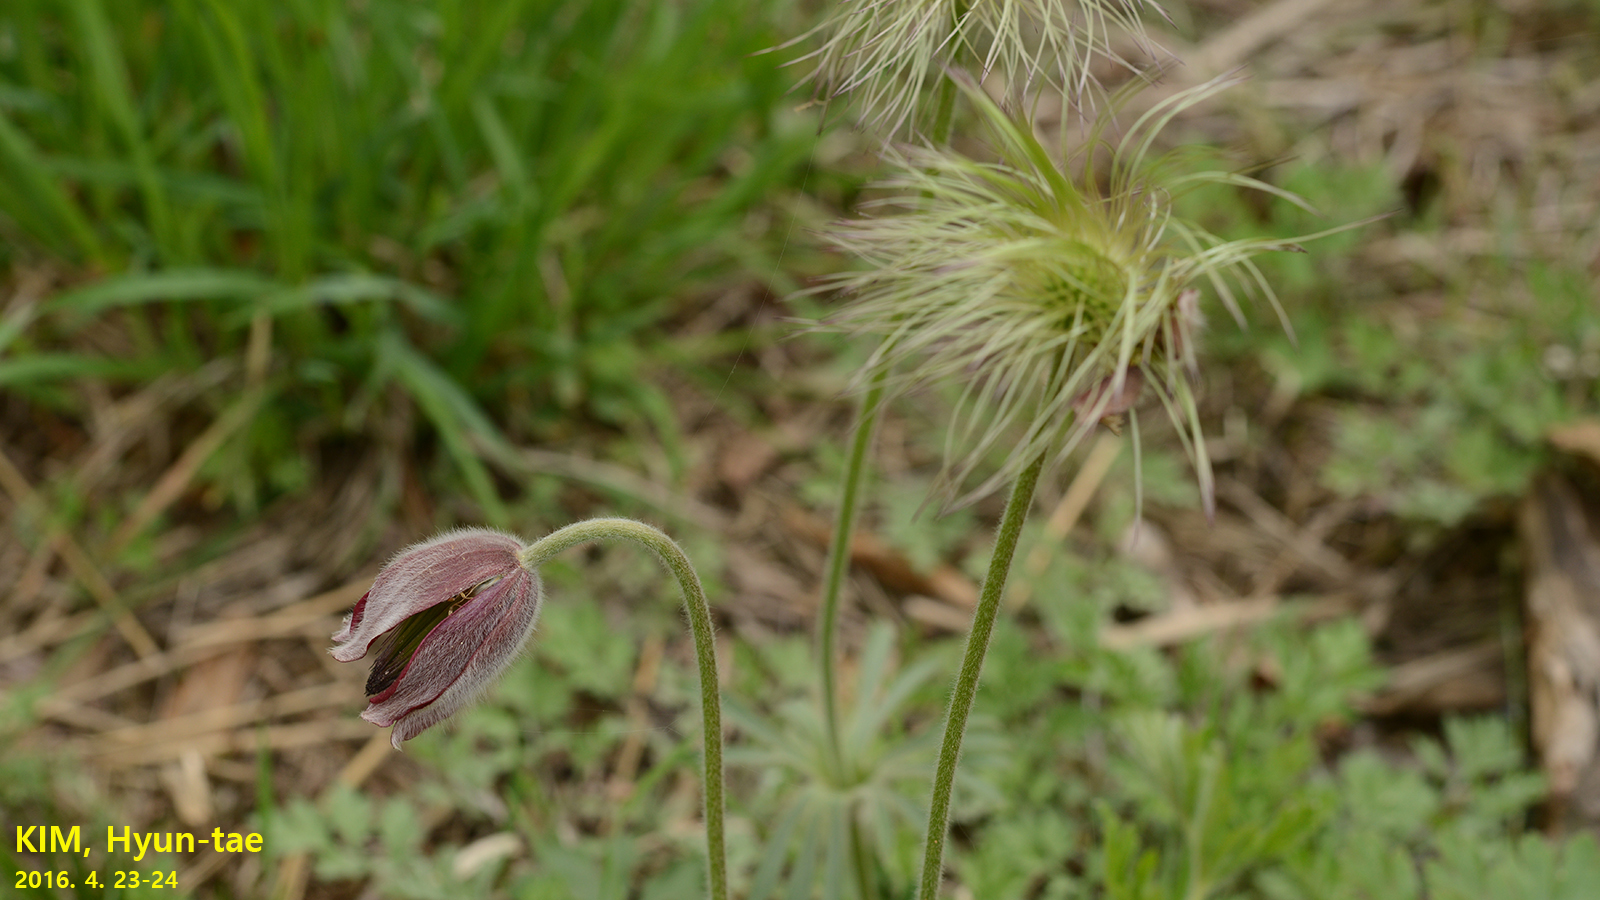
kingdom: Plantae
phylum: Tracheophyta
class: Magnoliopsida
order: Ranunculales
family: Ranunculaceae
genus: Pulsatilla
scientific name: Pulsatilla cernua
